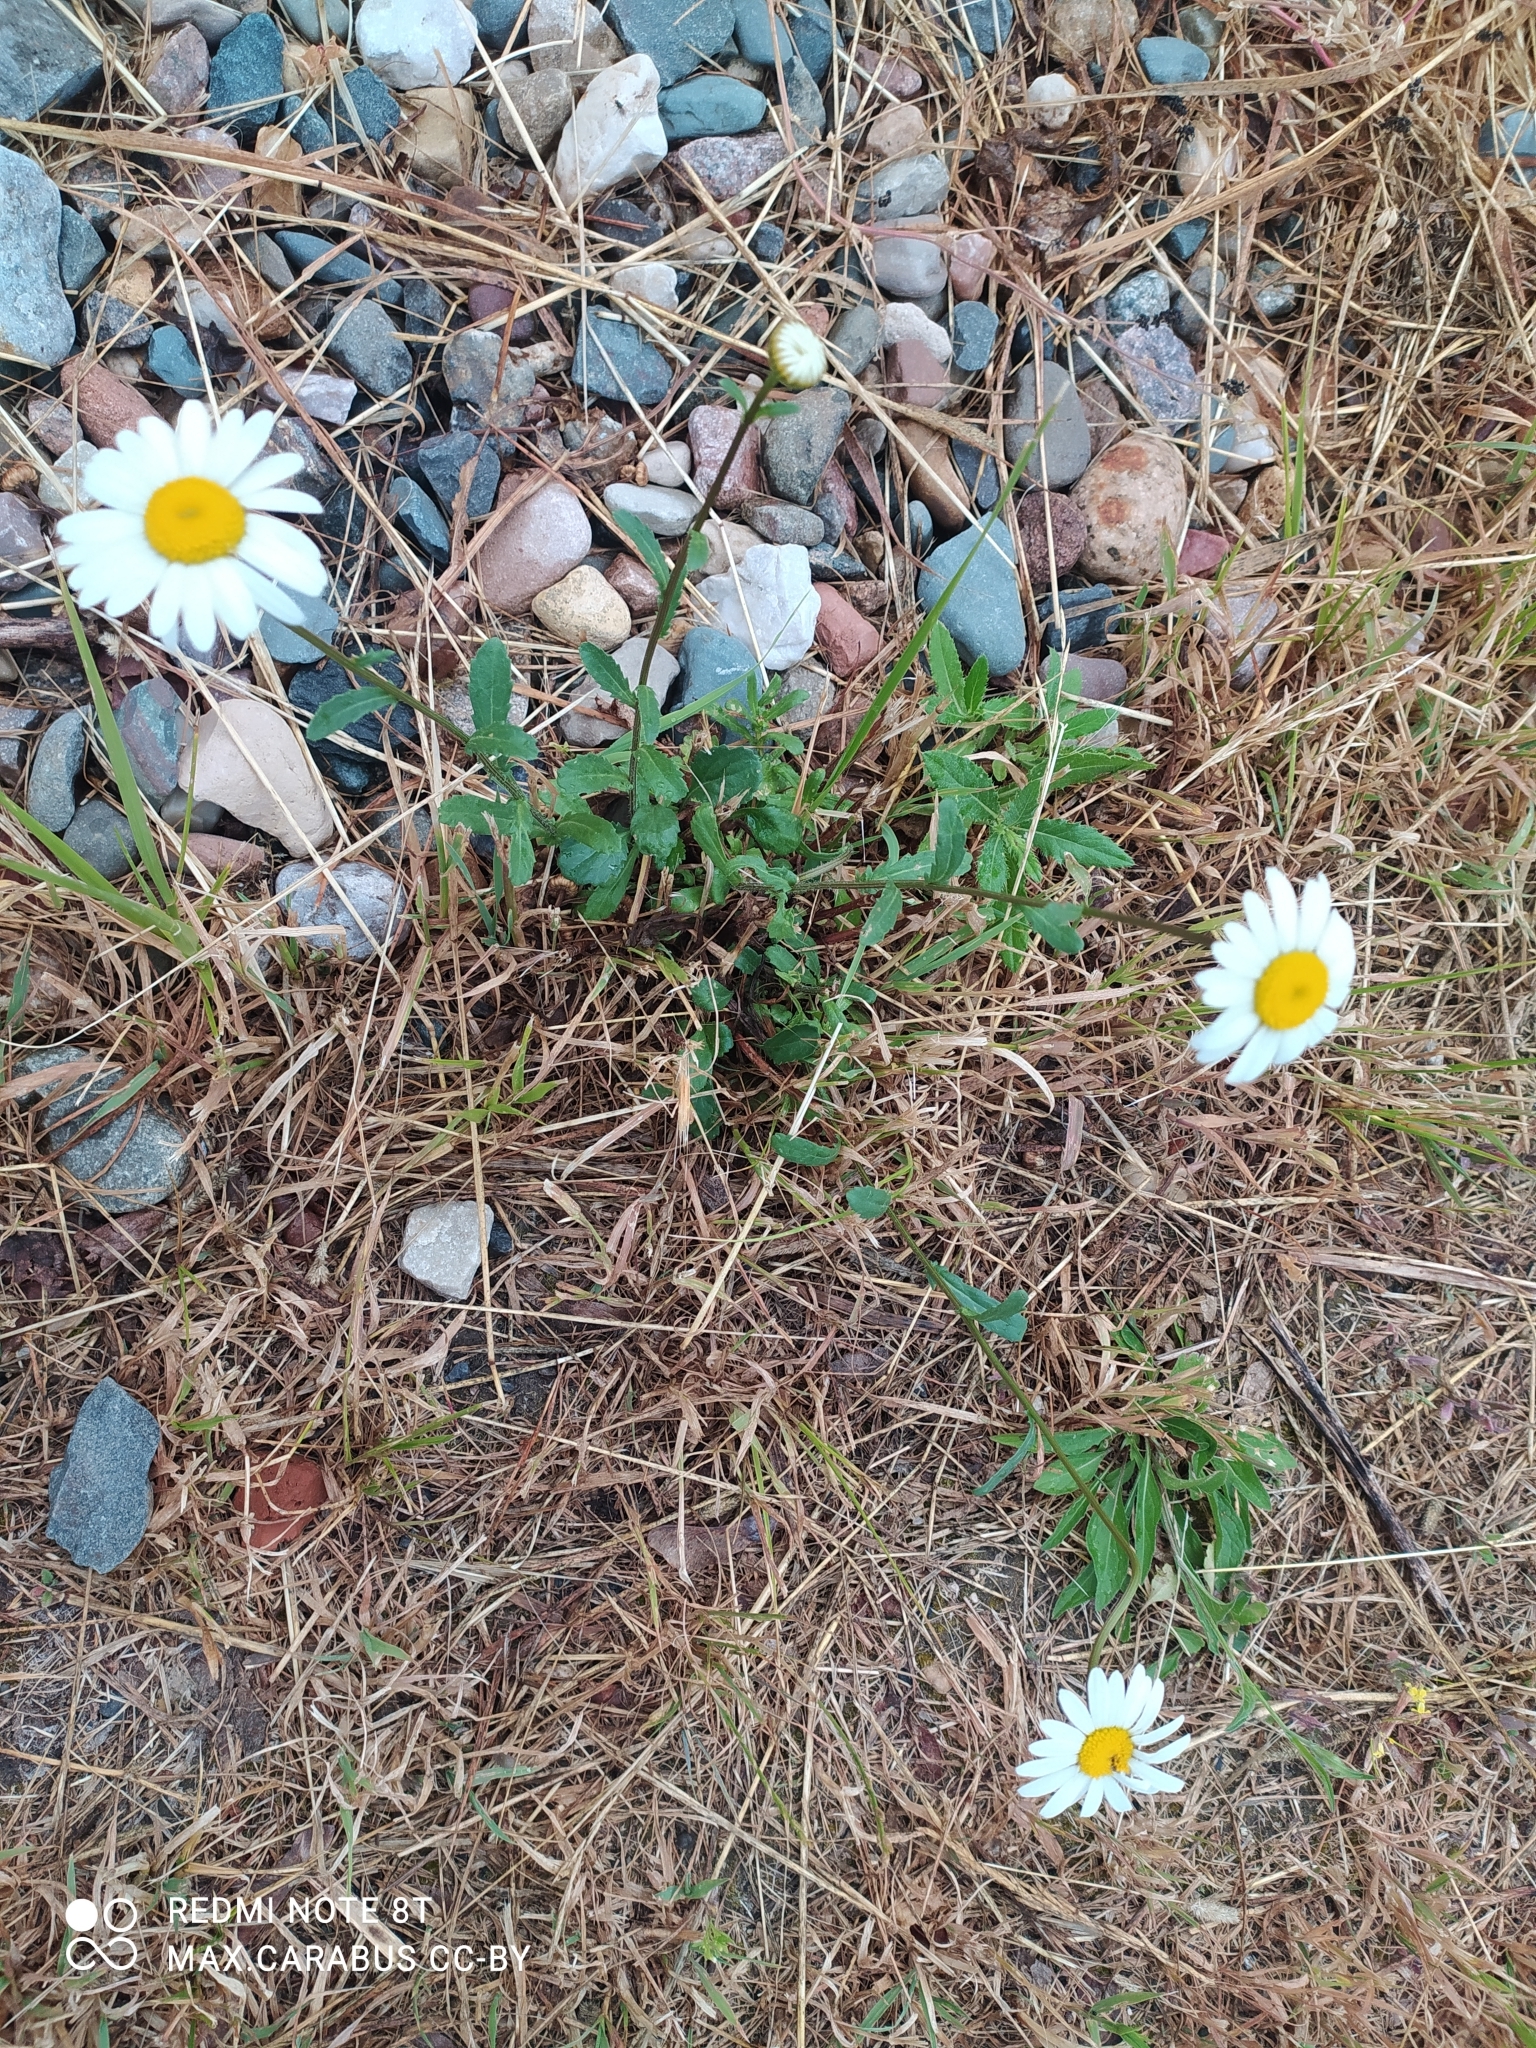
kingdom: Plantae
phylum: Tracheophyta
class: Magnoliopsida
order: Asterales
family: Asteraceae
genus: Leucanthemum
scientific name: Leucanthemum vulgare
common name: Oxeye daisy
